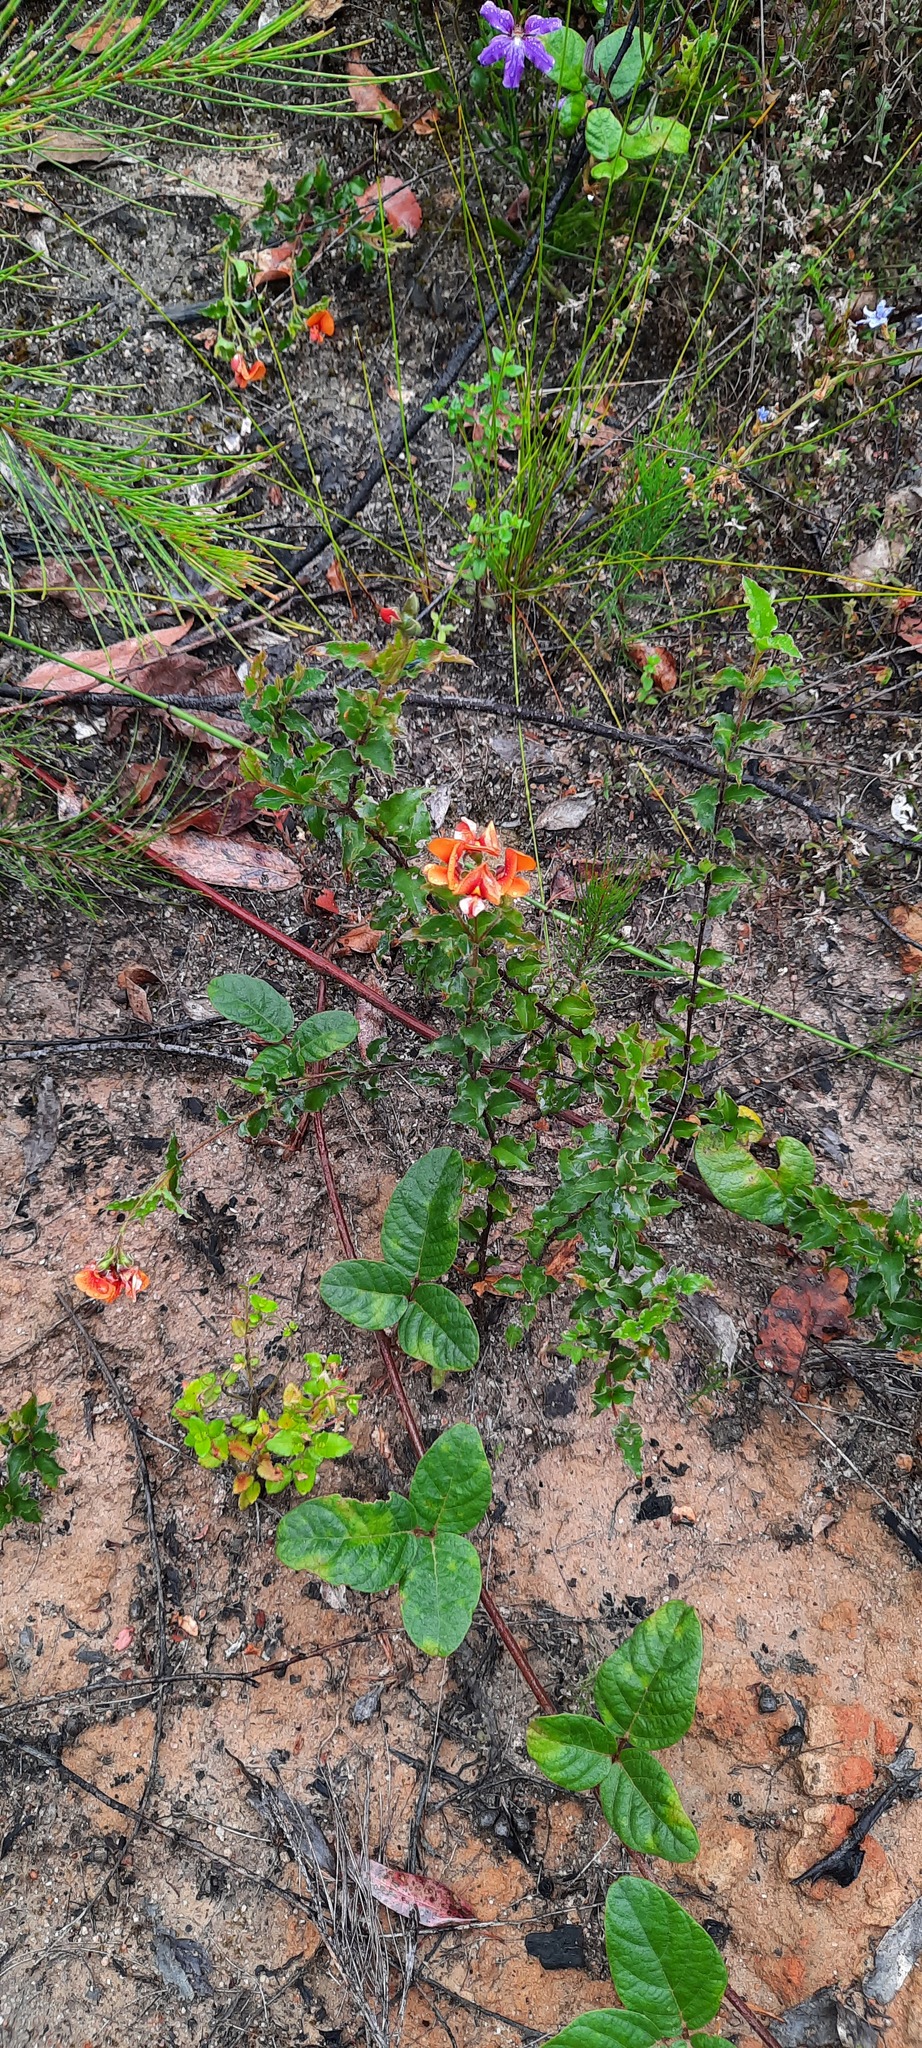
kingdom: Plantae
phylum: Tracheophyta
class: Magnoliopsida
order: Fabales
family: Fabaceae
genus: Podolobium
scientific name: Podolobium procumbens
